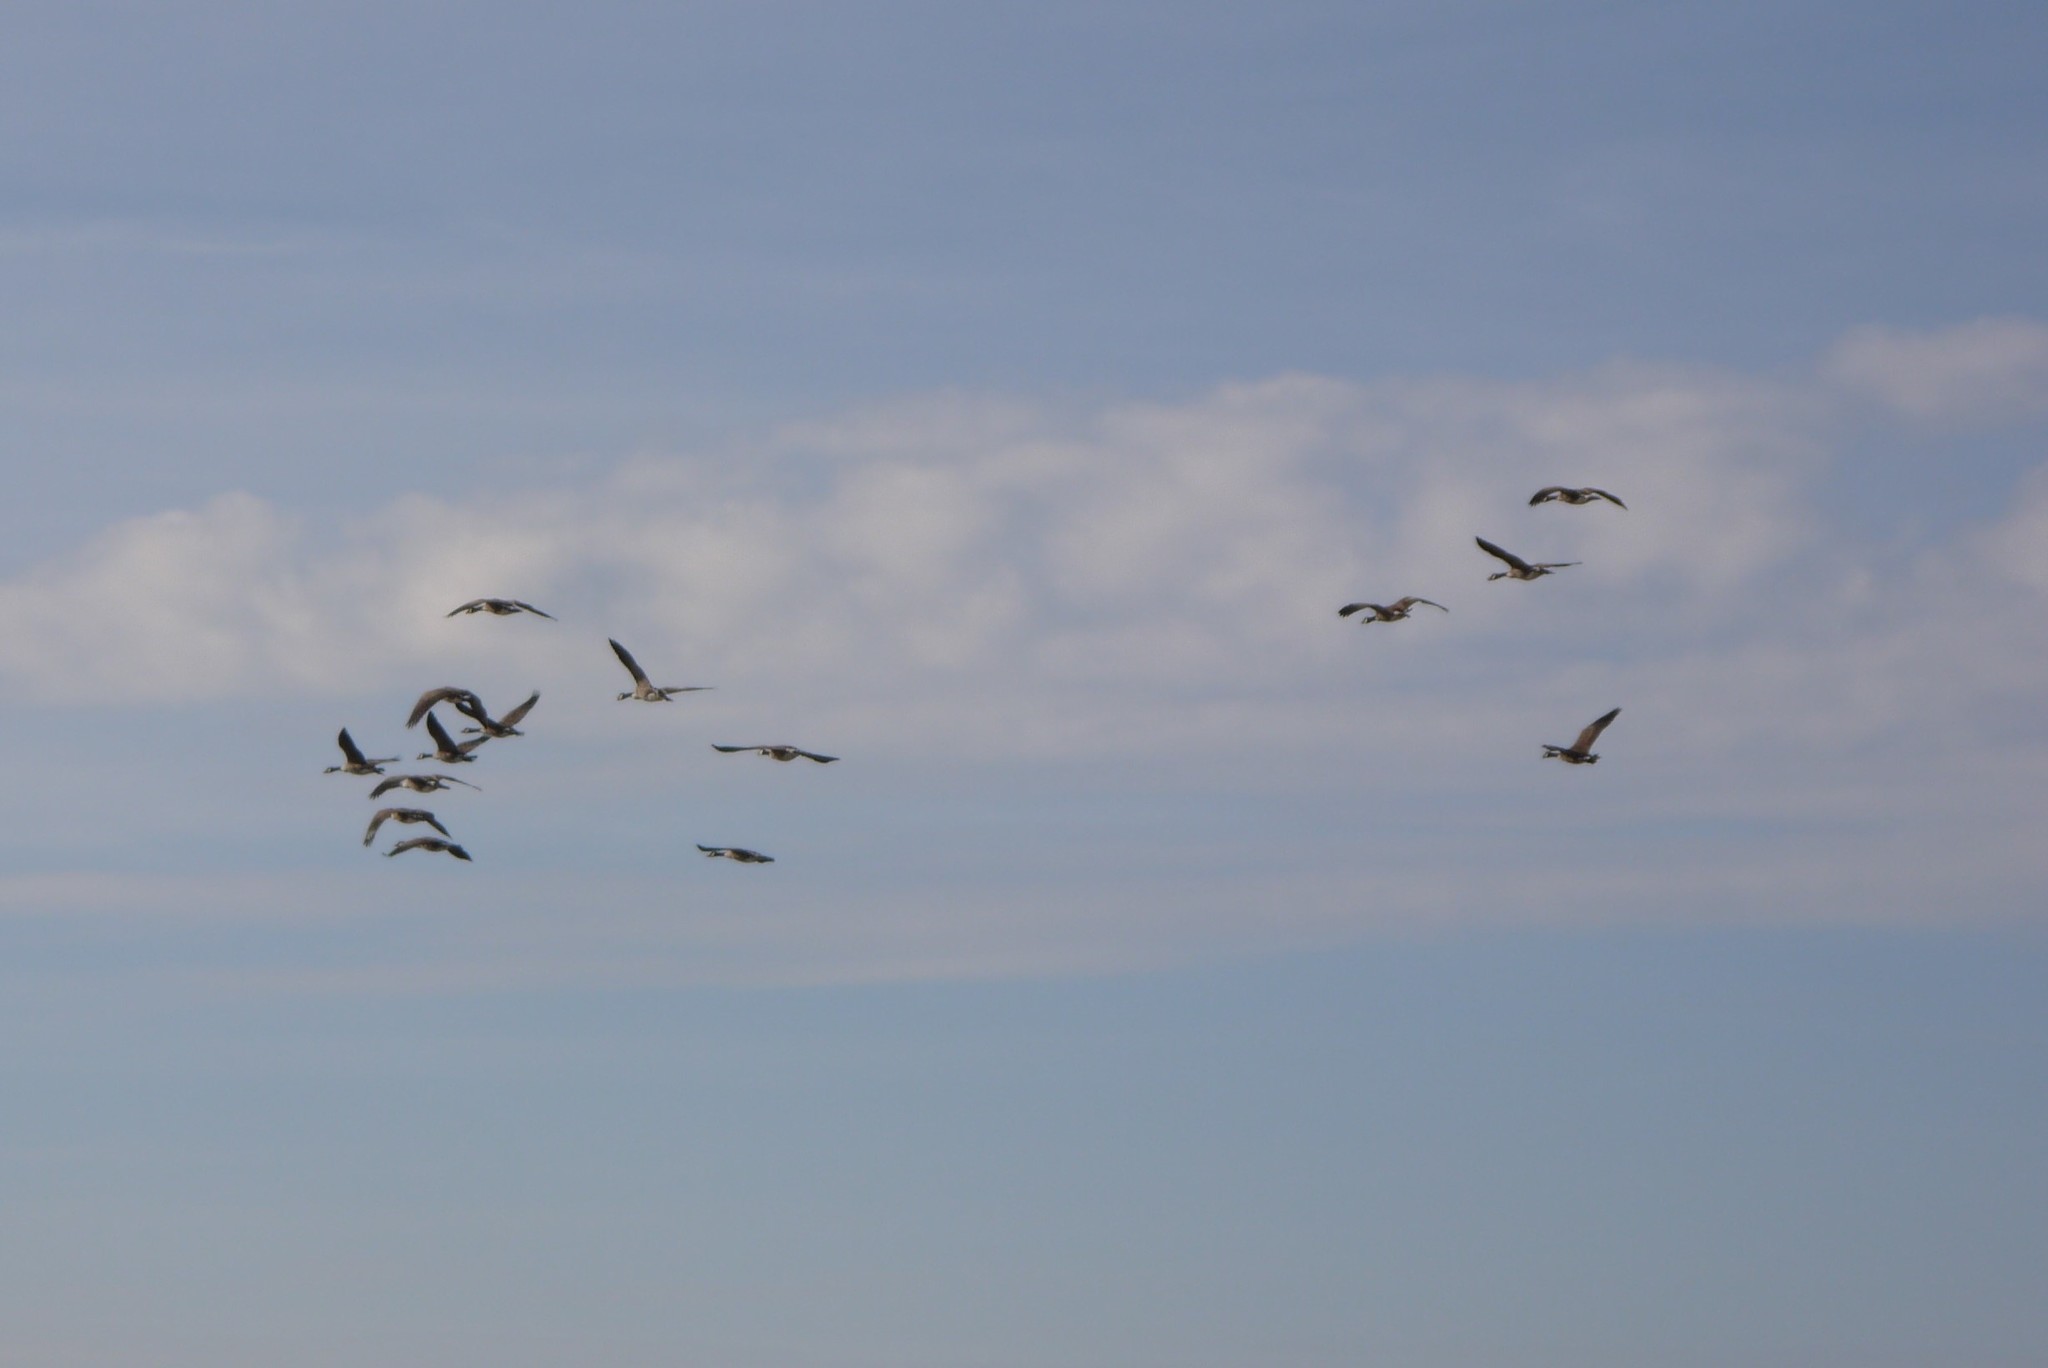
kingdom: Animalia
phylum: Chordata
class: Aves
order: Anseriformes
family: Anatidae
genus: Branta
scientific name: Branta canadensis
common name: Canada goose
